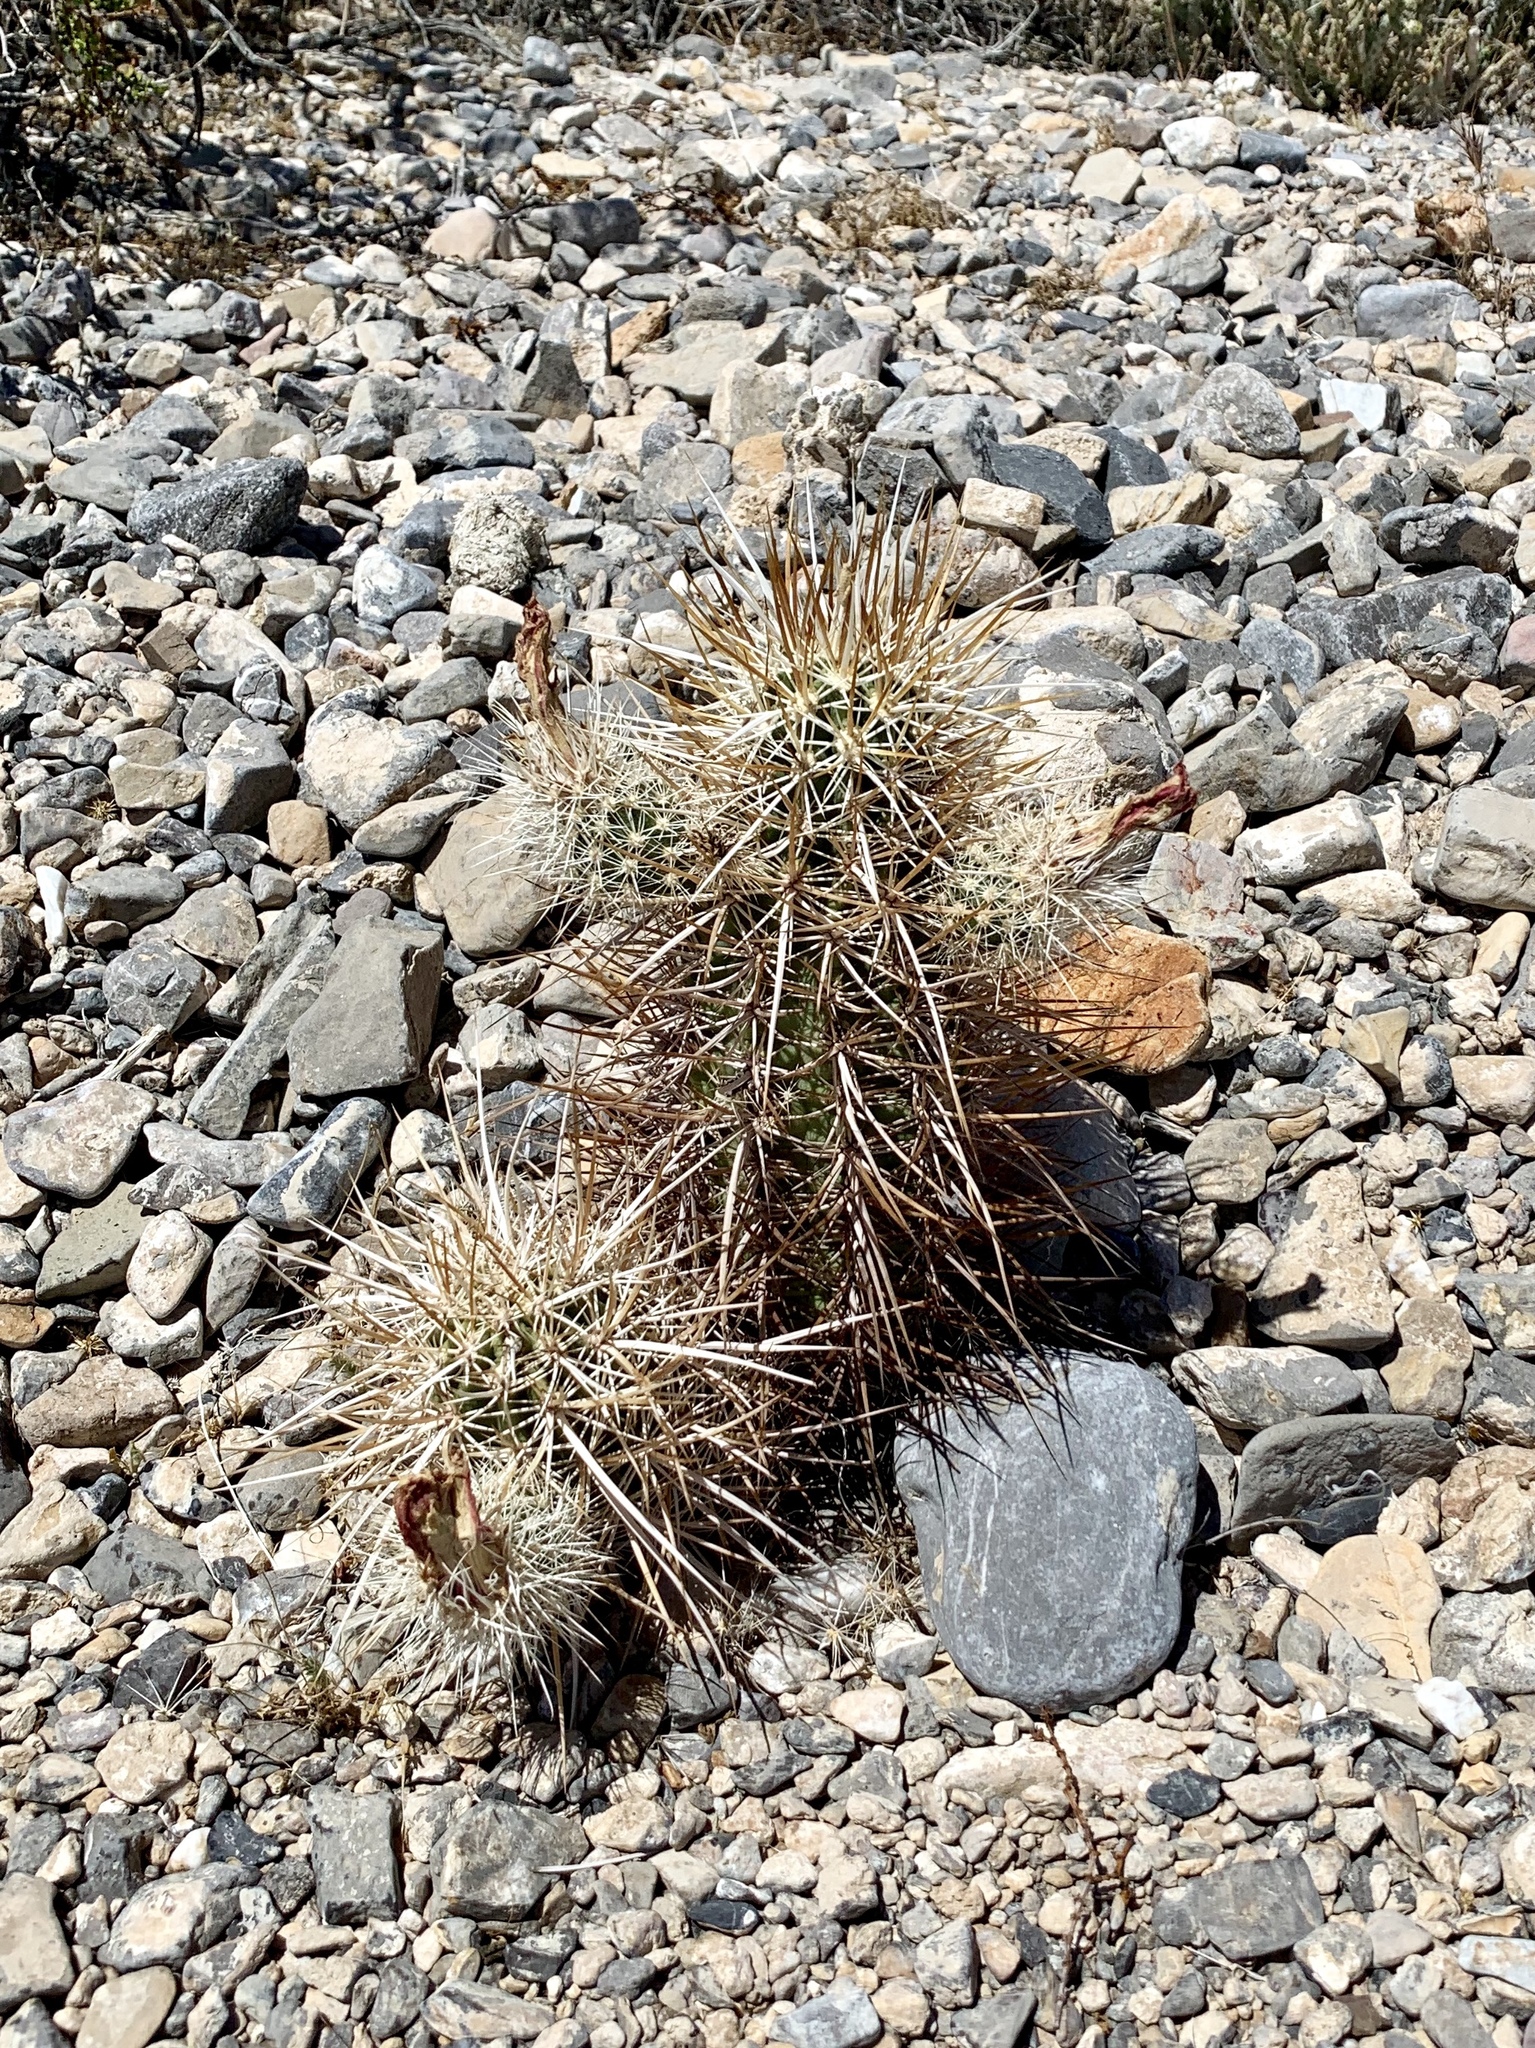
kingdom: Plantae
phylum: Tracheophyta
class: Magnoliopsida
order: Caryophyllales
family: Cactaceae
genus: Echinocereus
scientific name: Echinocereus engelmannii
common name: Engelmann's hedgehog cactus
